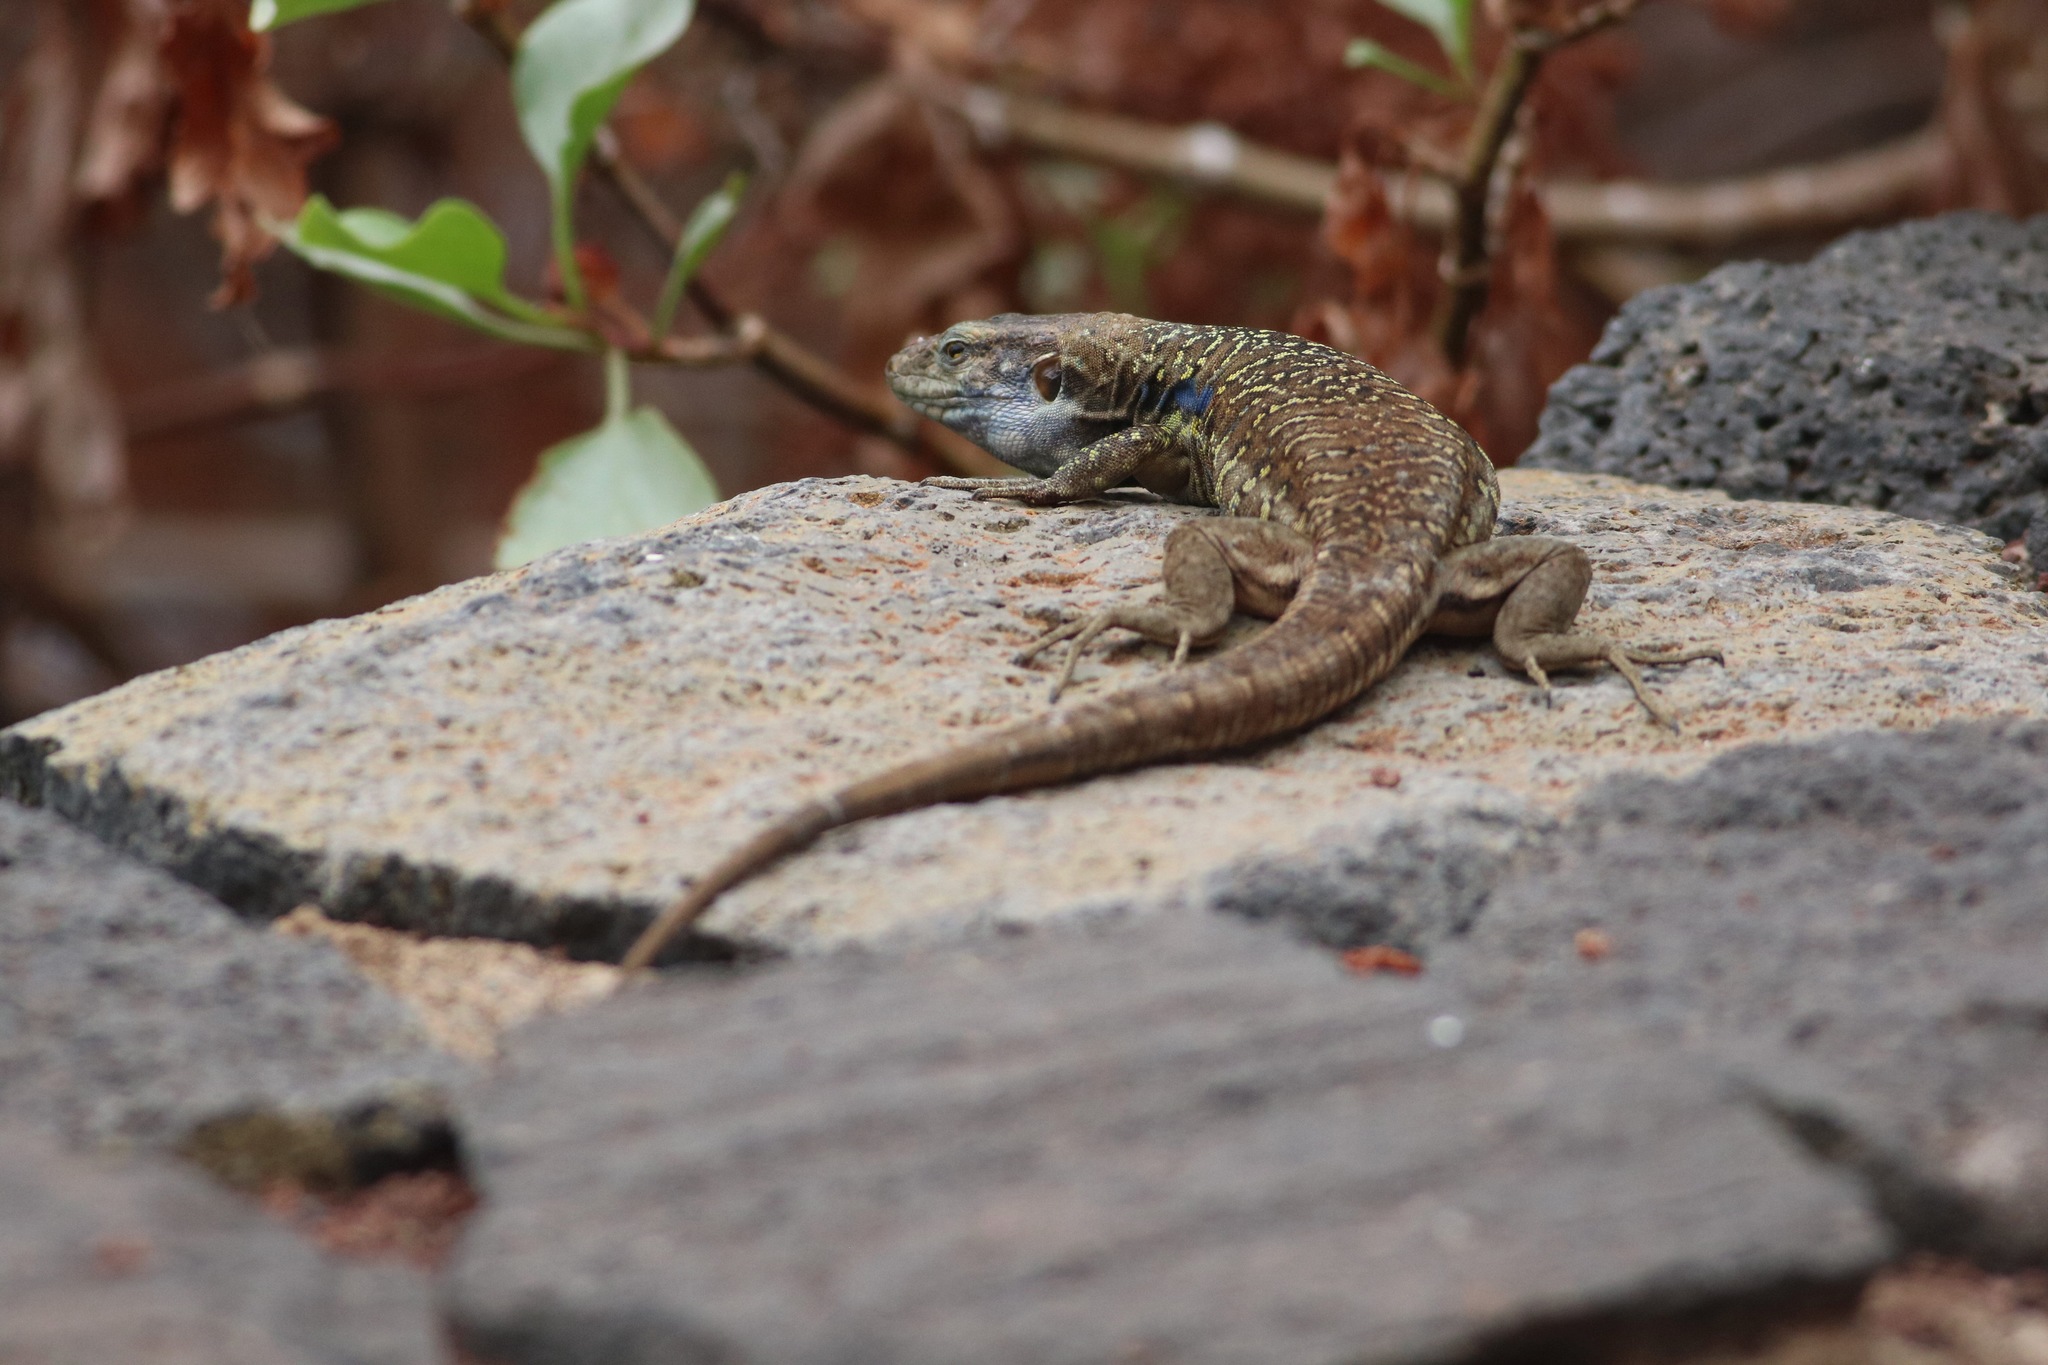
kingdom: Animalia
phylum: Chordata
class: Squamata
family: Lacertidae
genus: Gallotia
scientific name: Gallotia galloti
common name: Gallot's lizard
